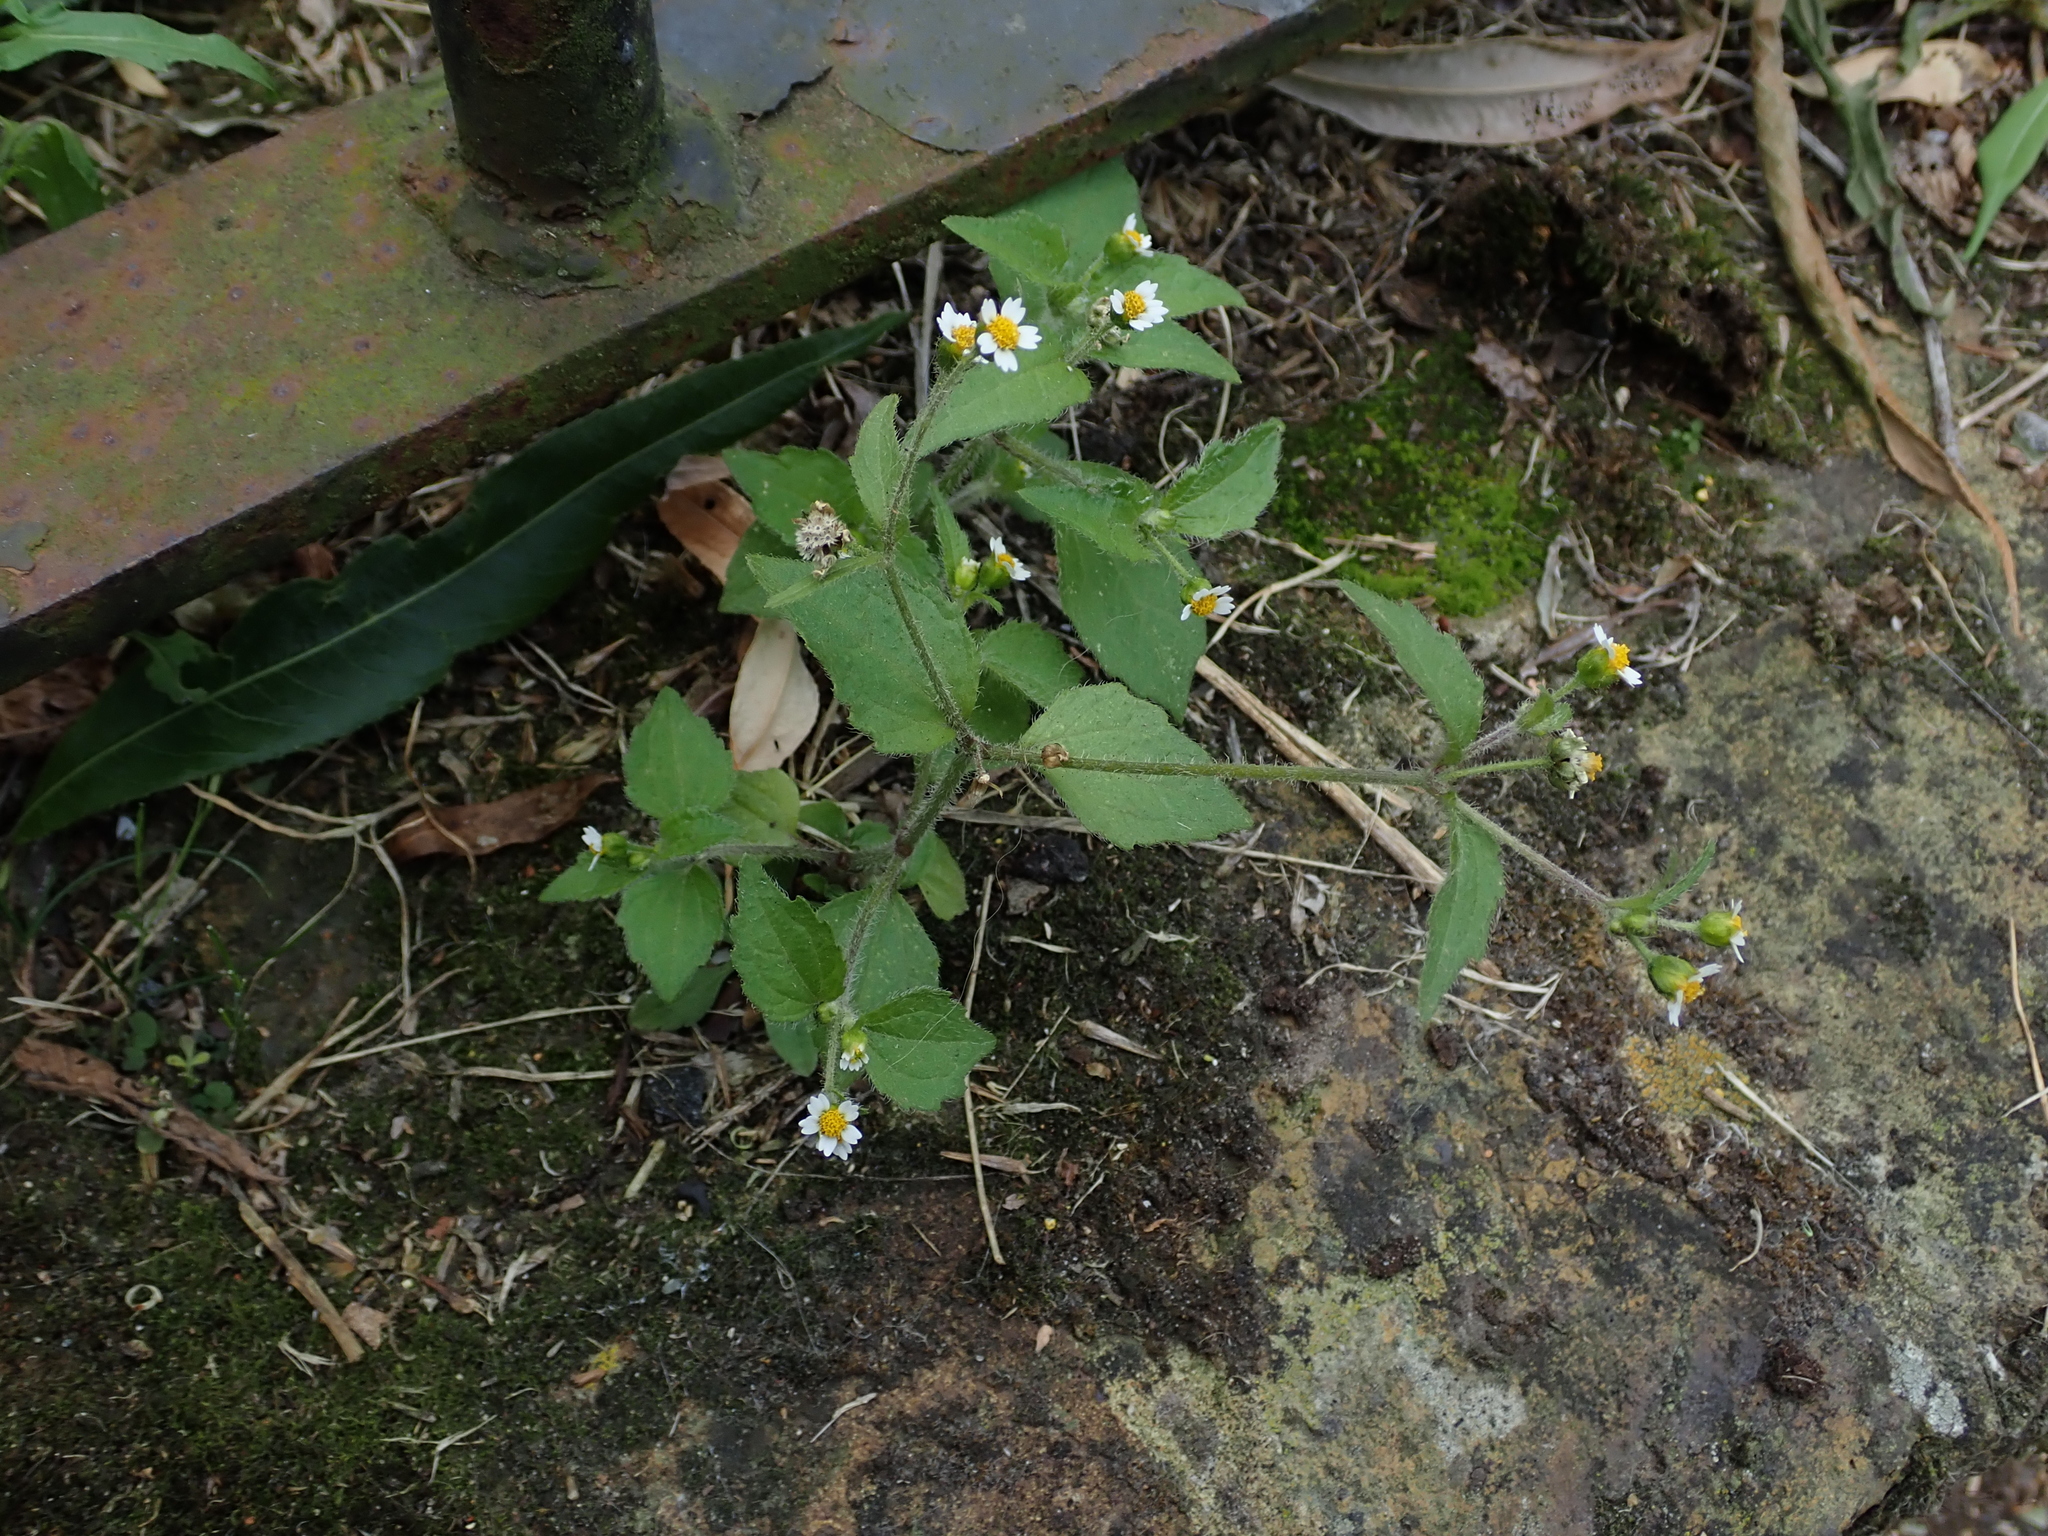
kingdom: Plantae
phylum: Tracheophyta
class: Magnoliopsida
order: Asterales
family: Asteraceae
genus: Galinsoga
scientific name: Galinsoga quadriradiata
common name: Shaggy soldier
